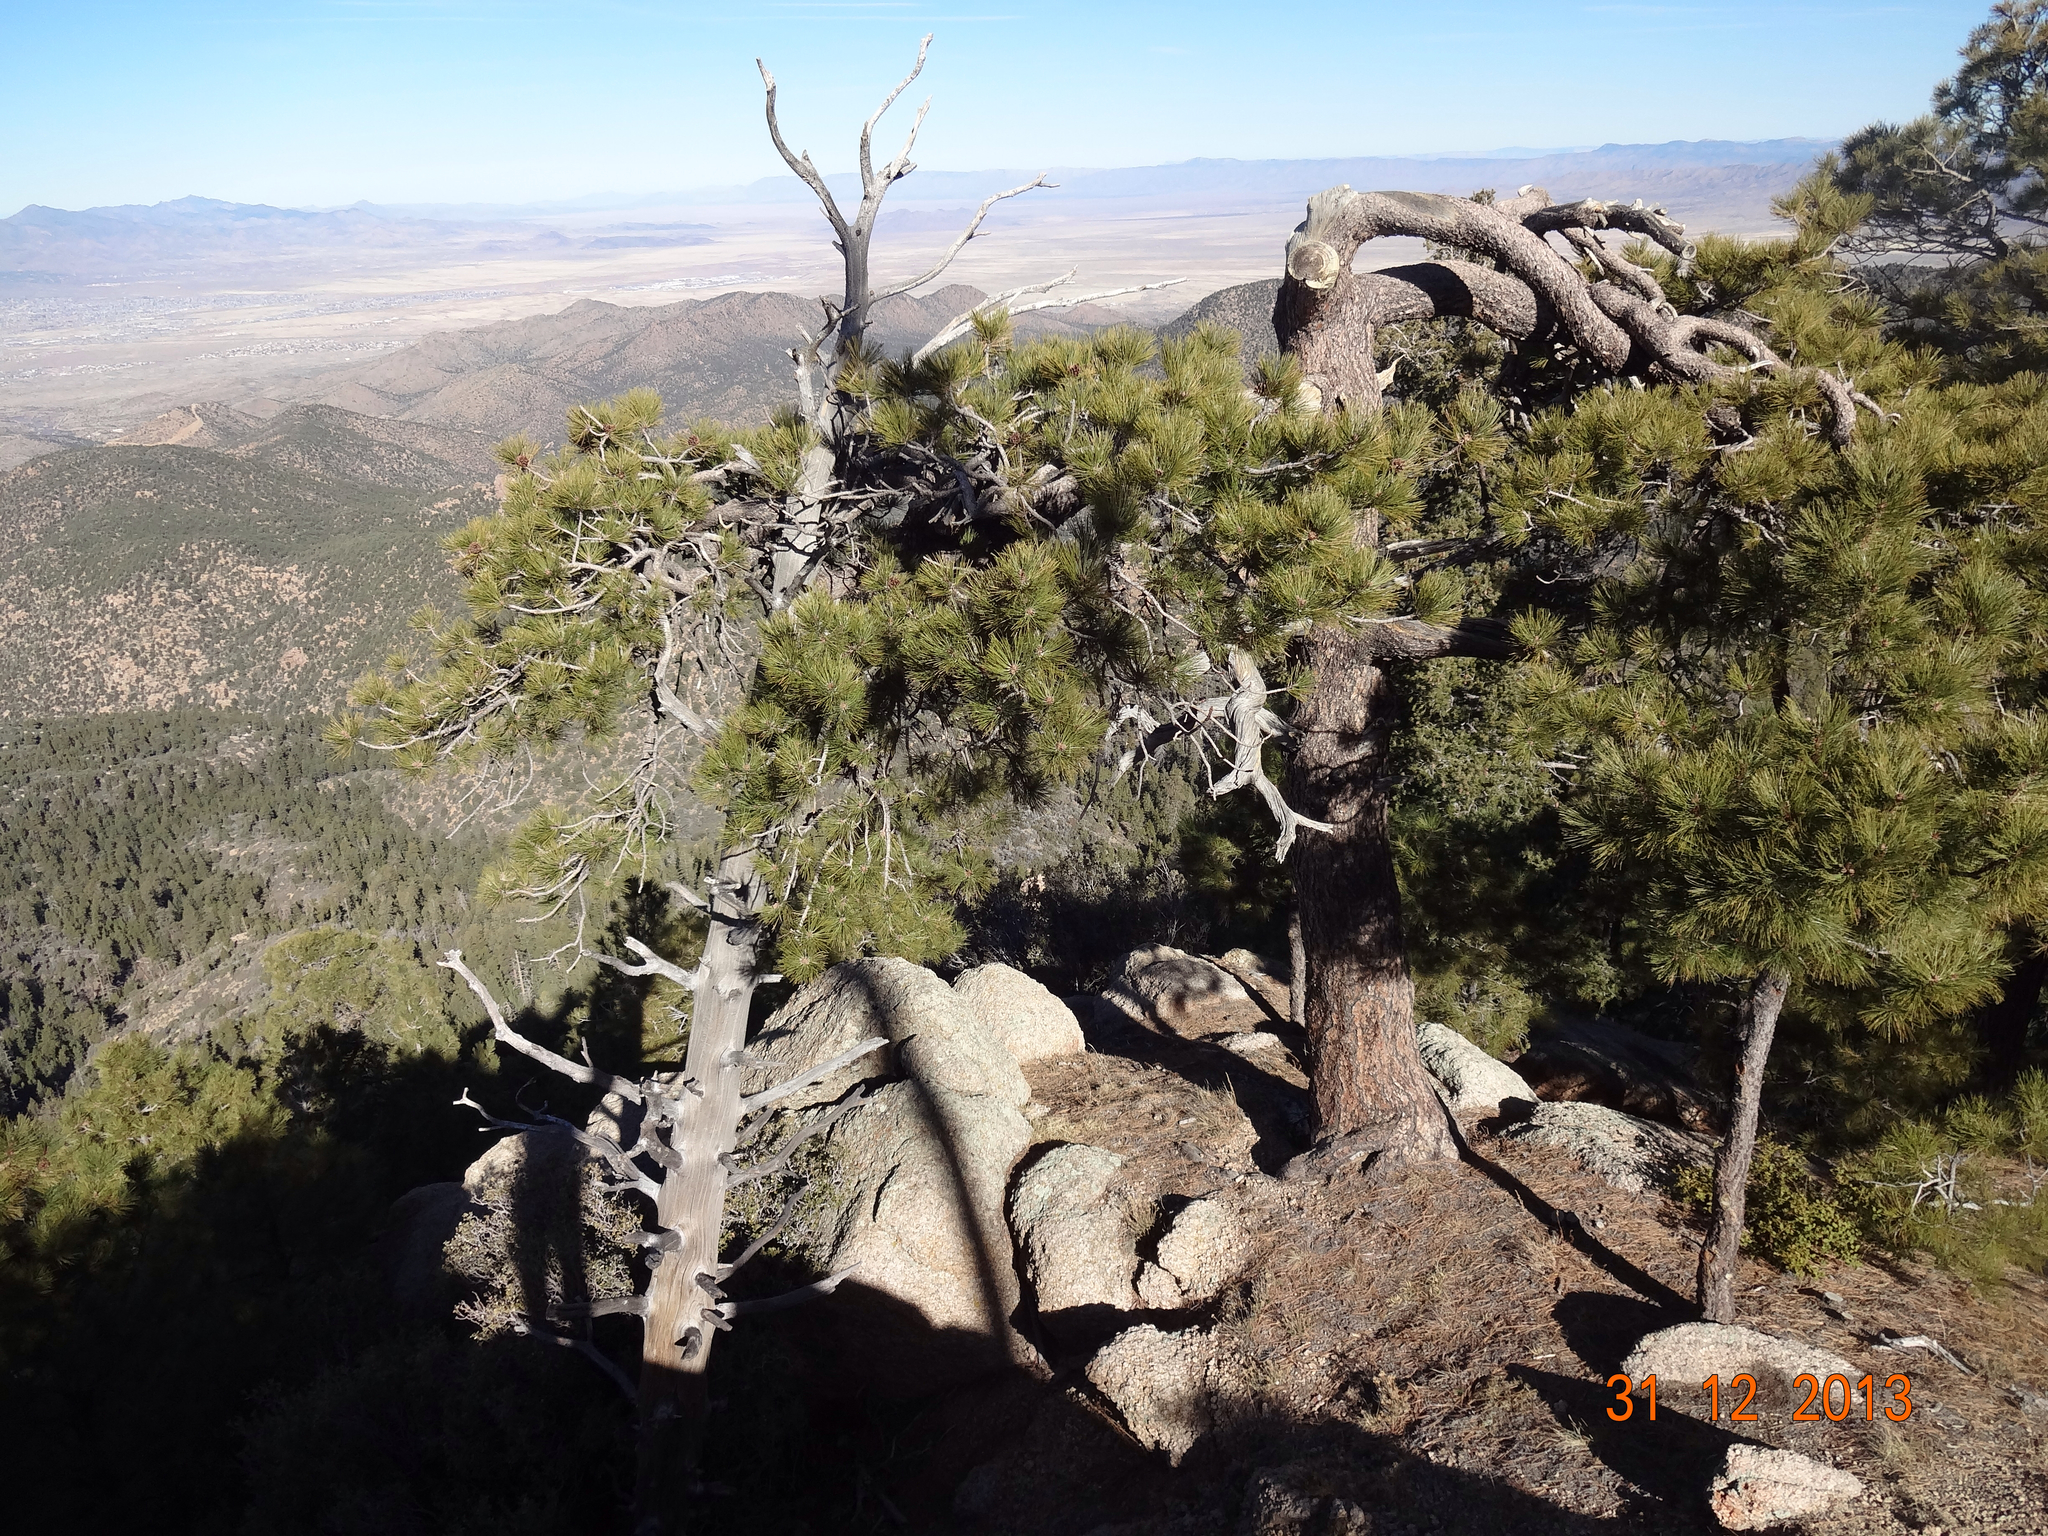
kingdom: Plantae
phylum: Tracheophyta
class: Pinopsida
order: Pinales
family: Pinaceae
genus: Pinus
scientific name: Pinus ponderosa
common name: Western yellow-pine
